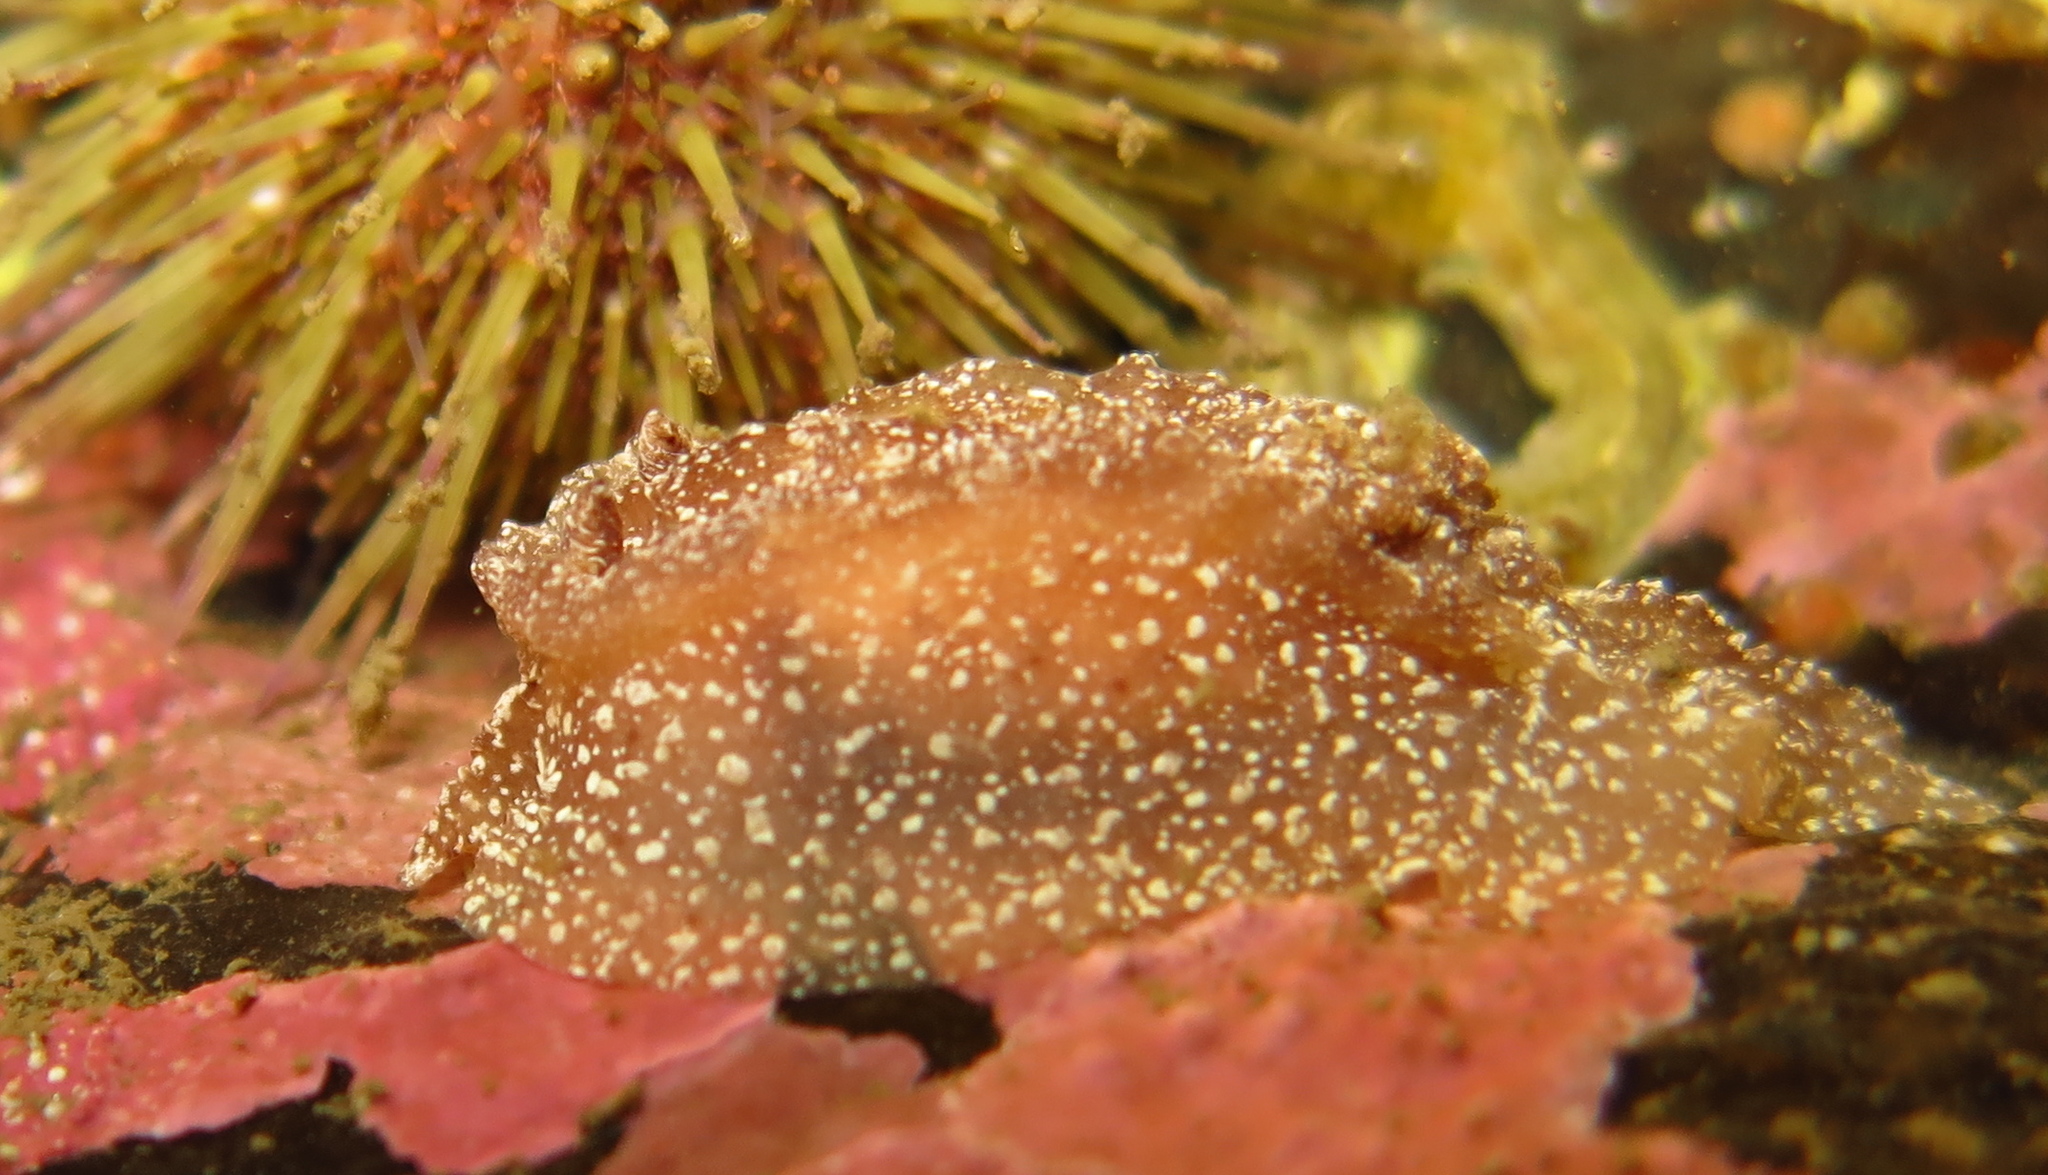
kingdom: Animalia
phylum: Mollusca
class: Gastropoda
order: Nudibranchia
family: Goniodorididae
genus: Pelagella
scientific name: Pelagella castanea
